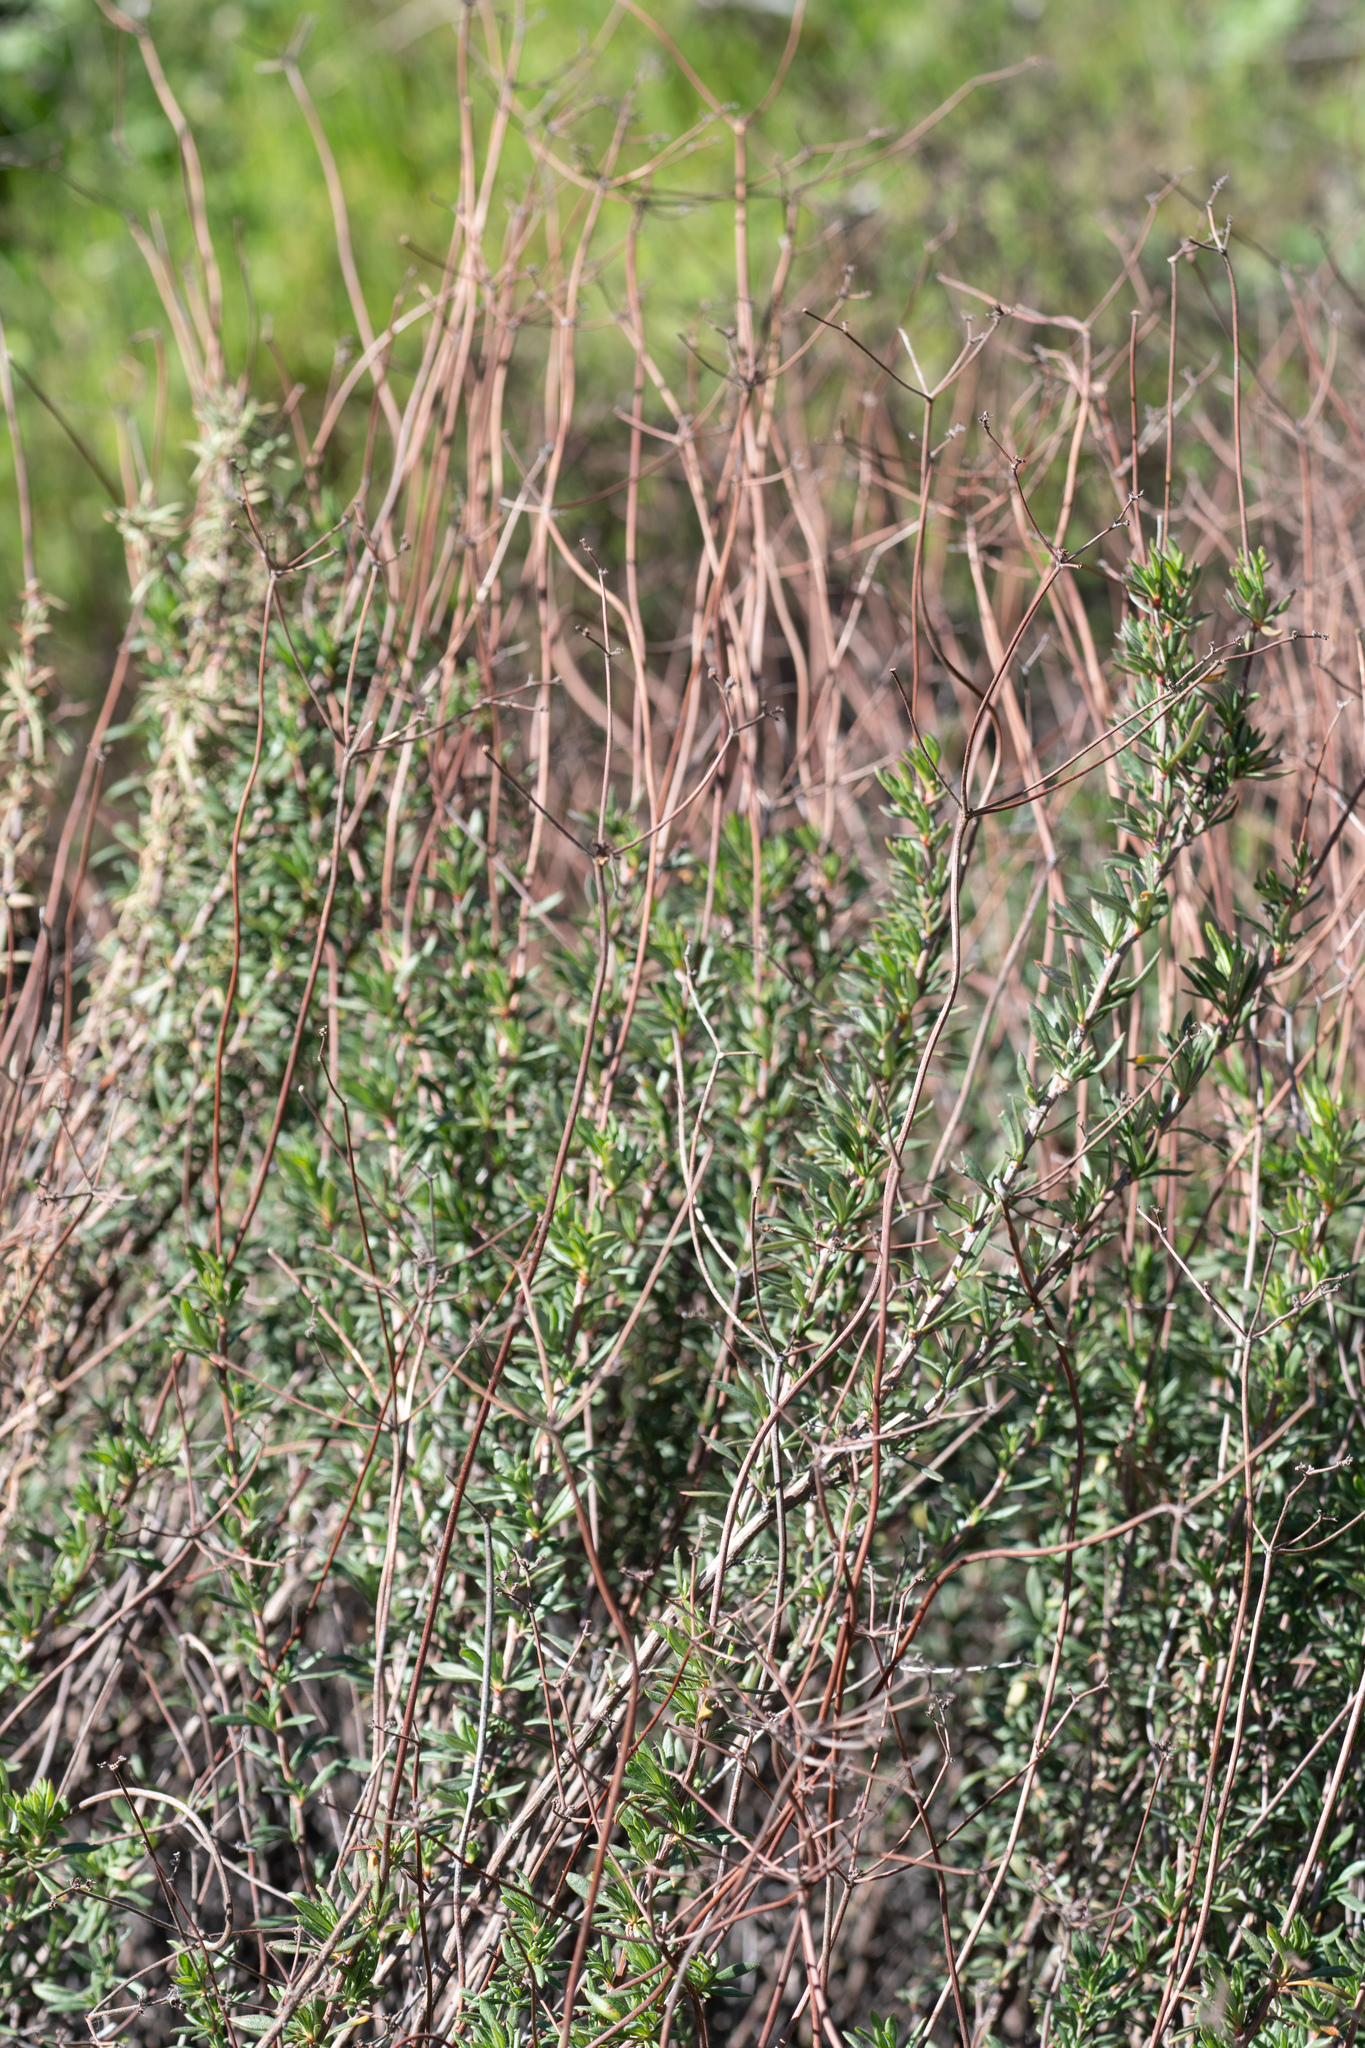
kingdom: Plantae
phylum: Tracheophyta
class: Magnoliopsida
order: Caryophyllales
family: Polygonaceae
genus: Eriogonum
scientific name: Eriogonum fasciculatum
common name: California wild buckwheat
